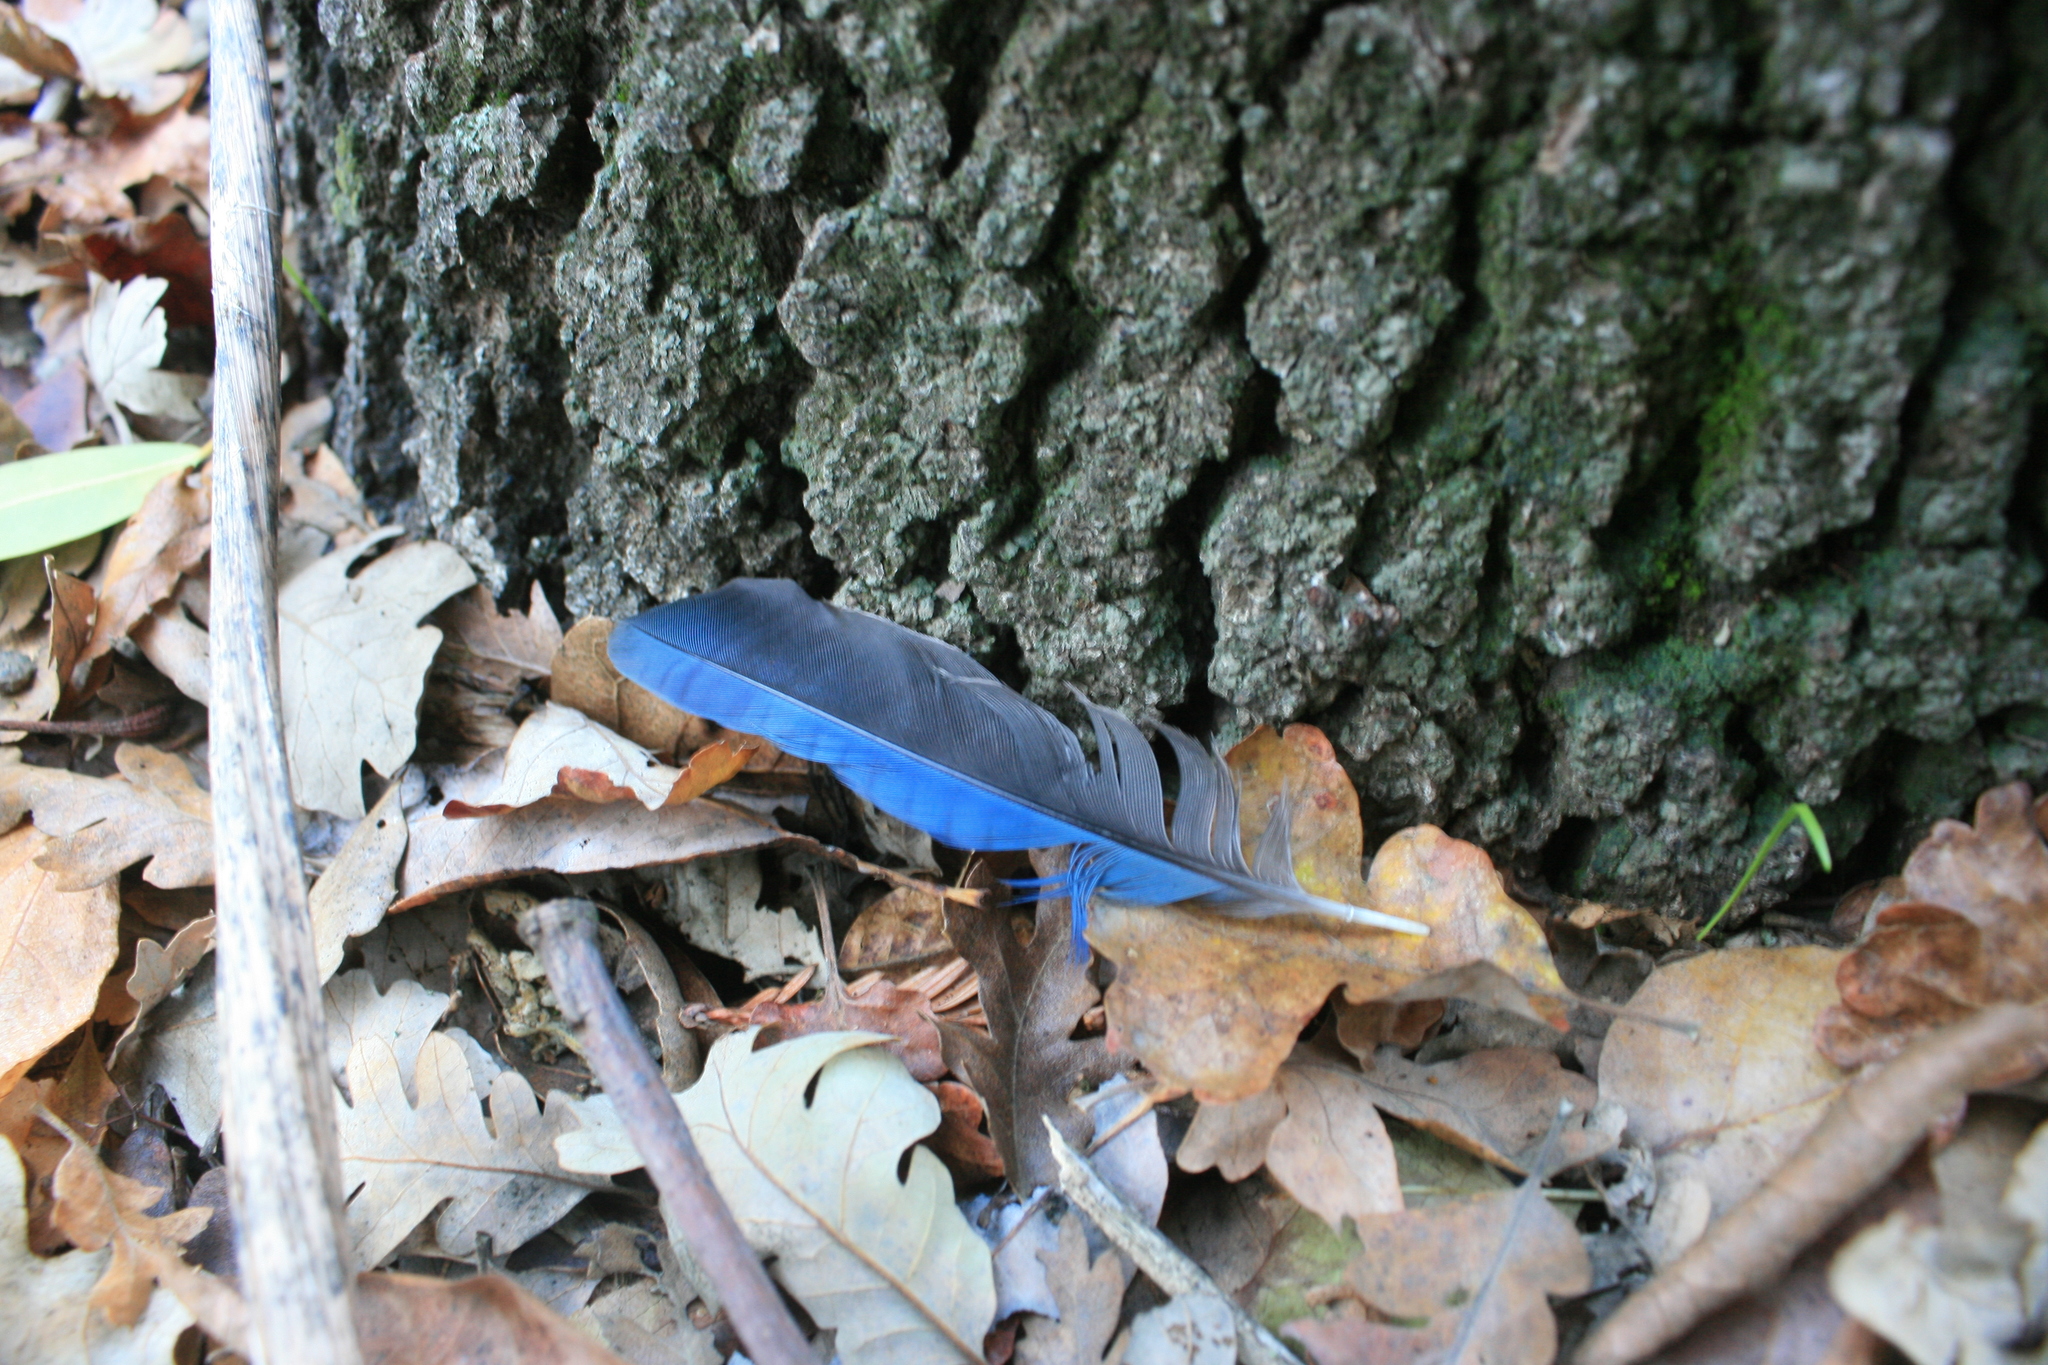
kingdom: Animalia
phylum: Chordata
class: Aves
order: Passeriformes
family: Corvidae
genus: Cyanocitta
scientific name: Cyanocitta stelleri
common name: Steller's jay
